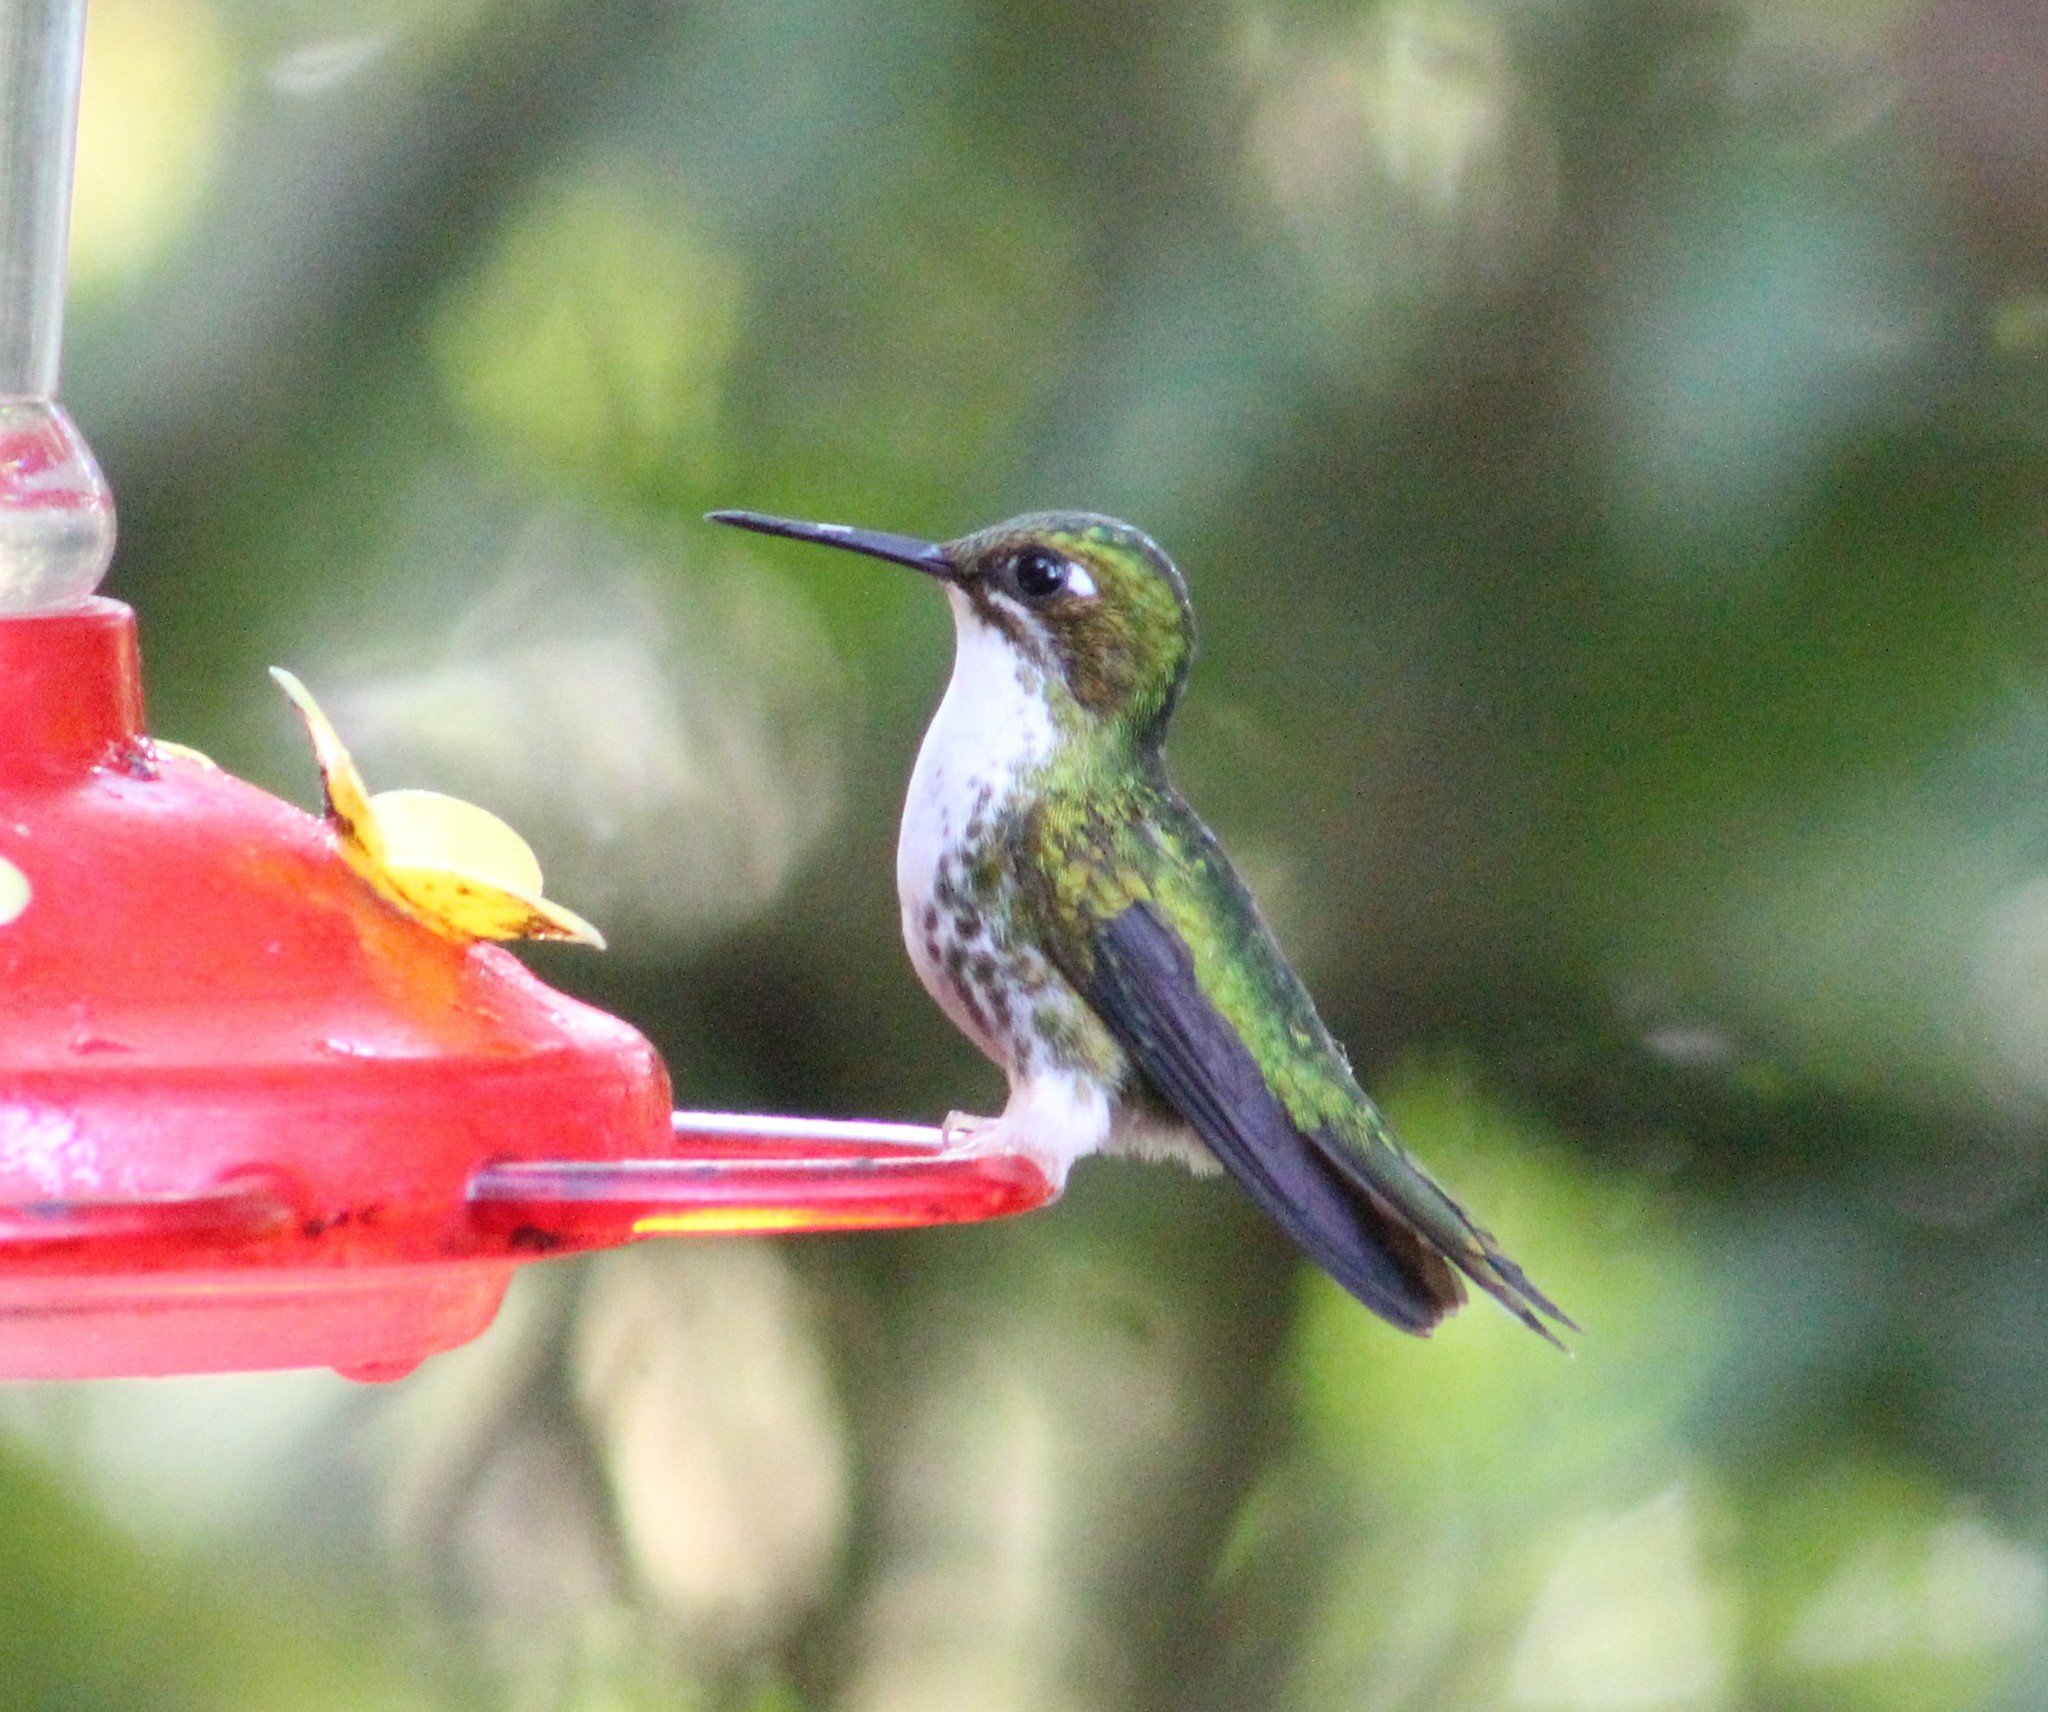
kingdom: Animalia
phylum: Chordata
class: Aves
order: Apodiformes
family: Trochilidae
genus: Ocreatus
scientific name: Ocreatus underwoodii
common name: Booted racket-tail
